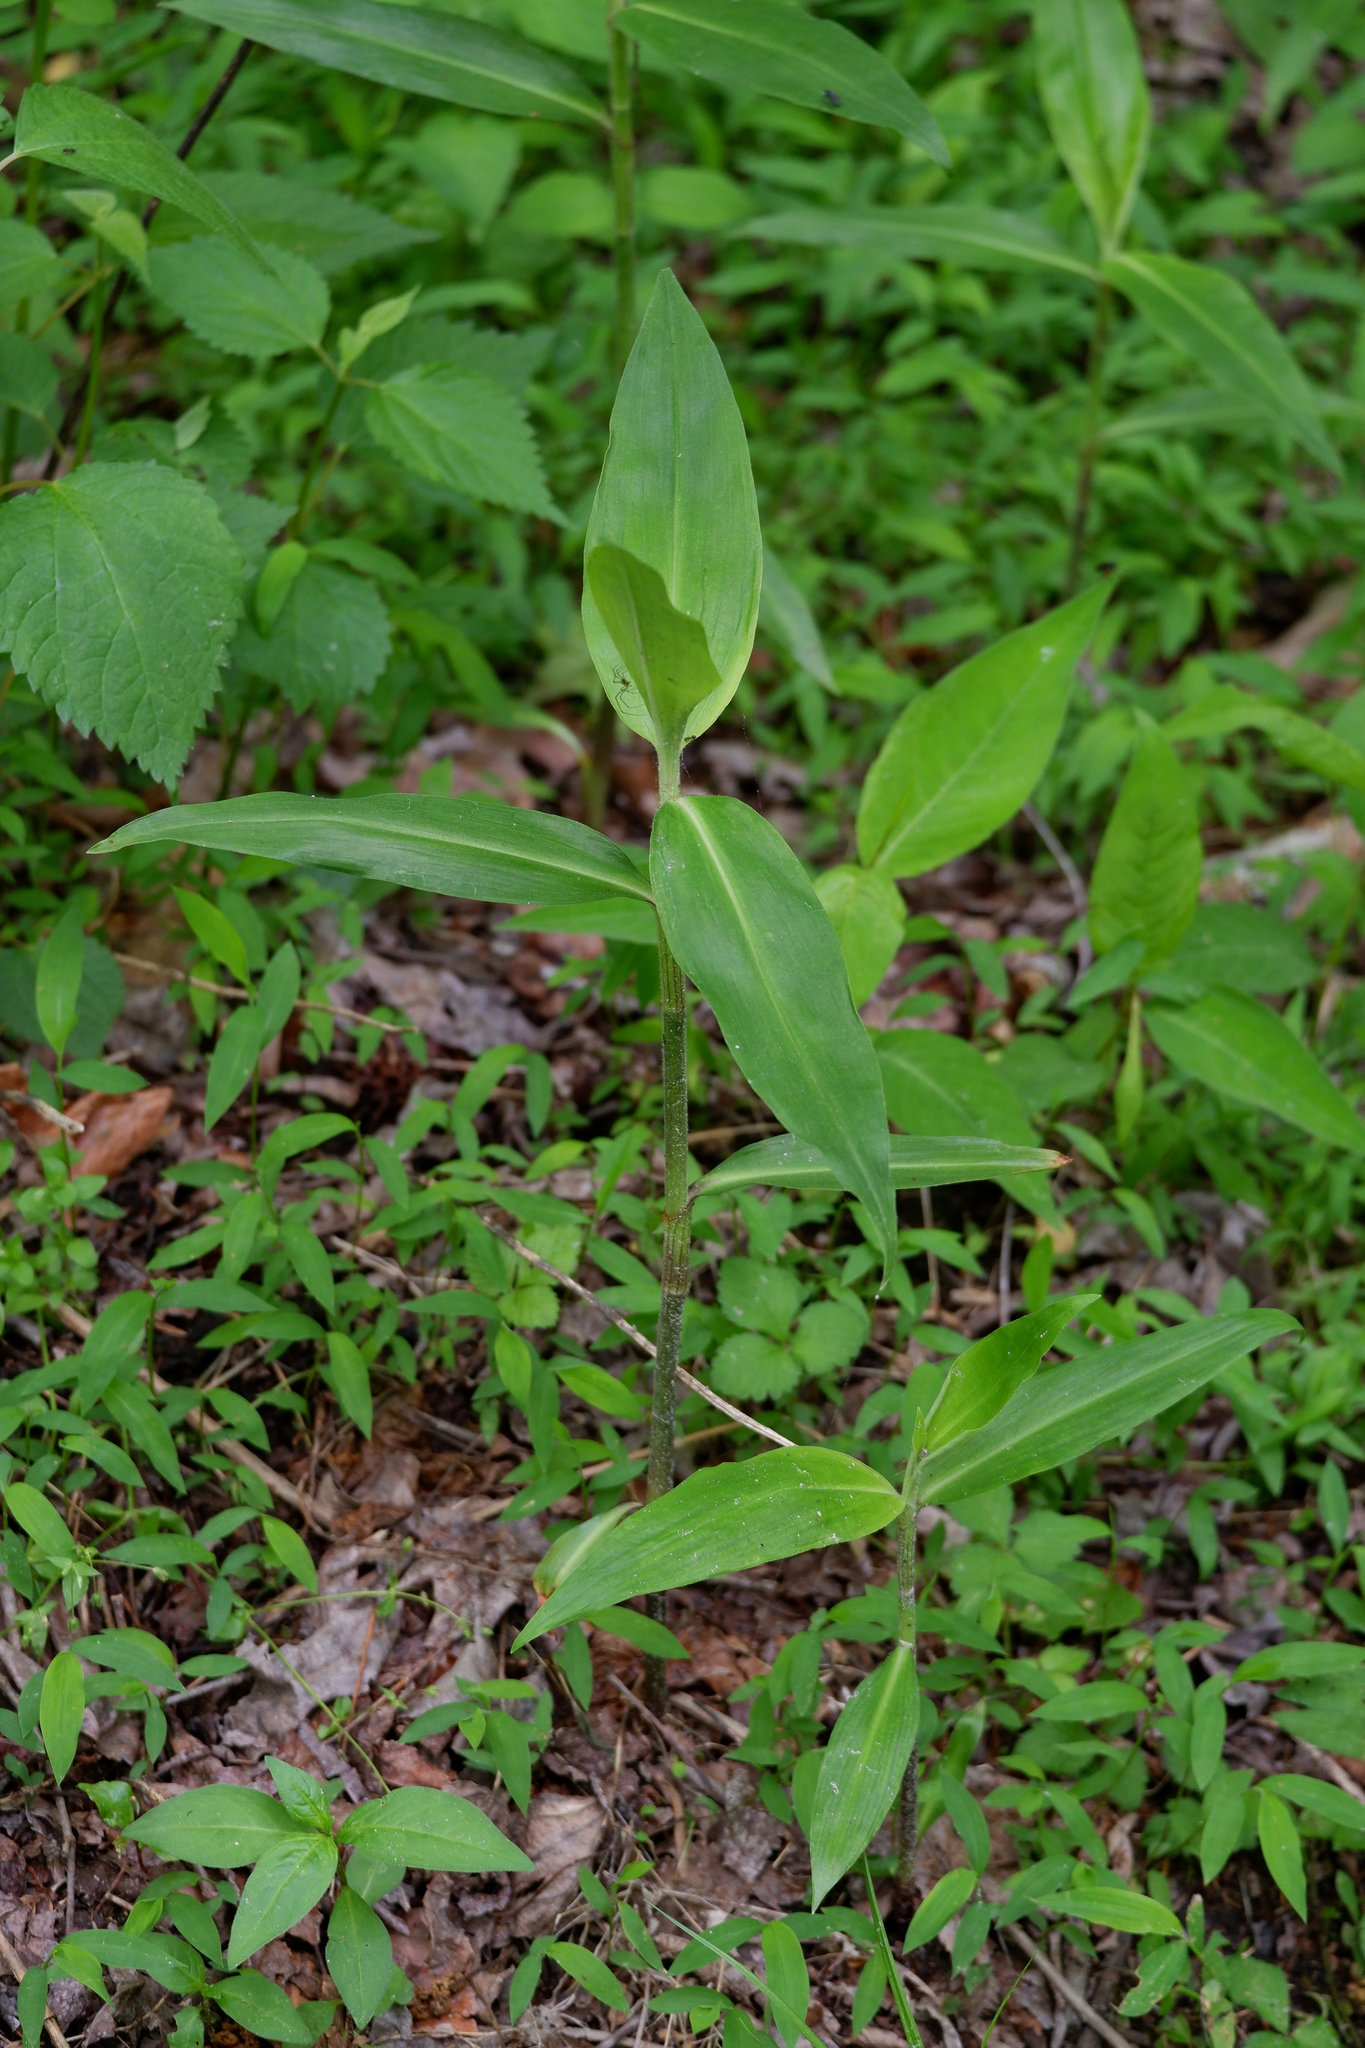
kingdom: Plantae
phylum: Tracheophyta
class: Liliopsida
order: Commelinales
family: Commelinaceae
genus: Commelina
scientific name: Commelina virginica
